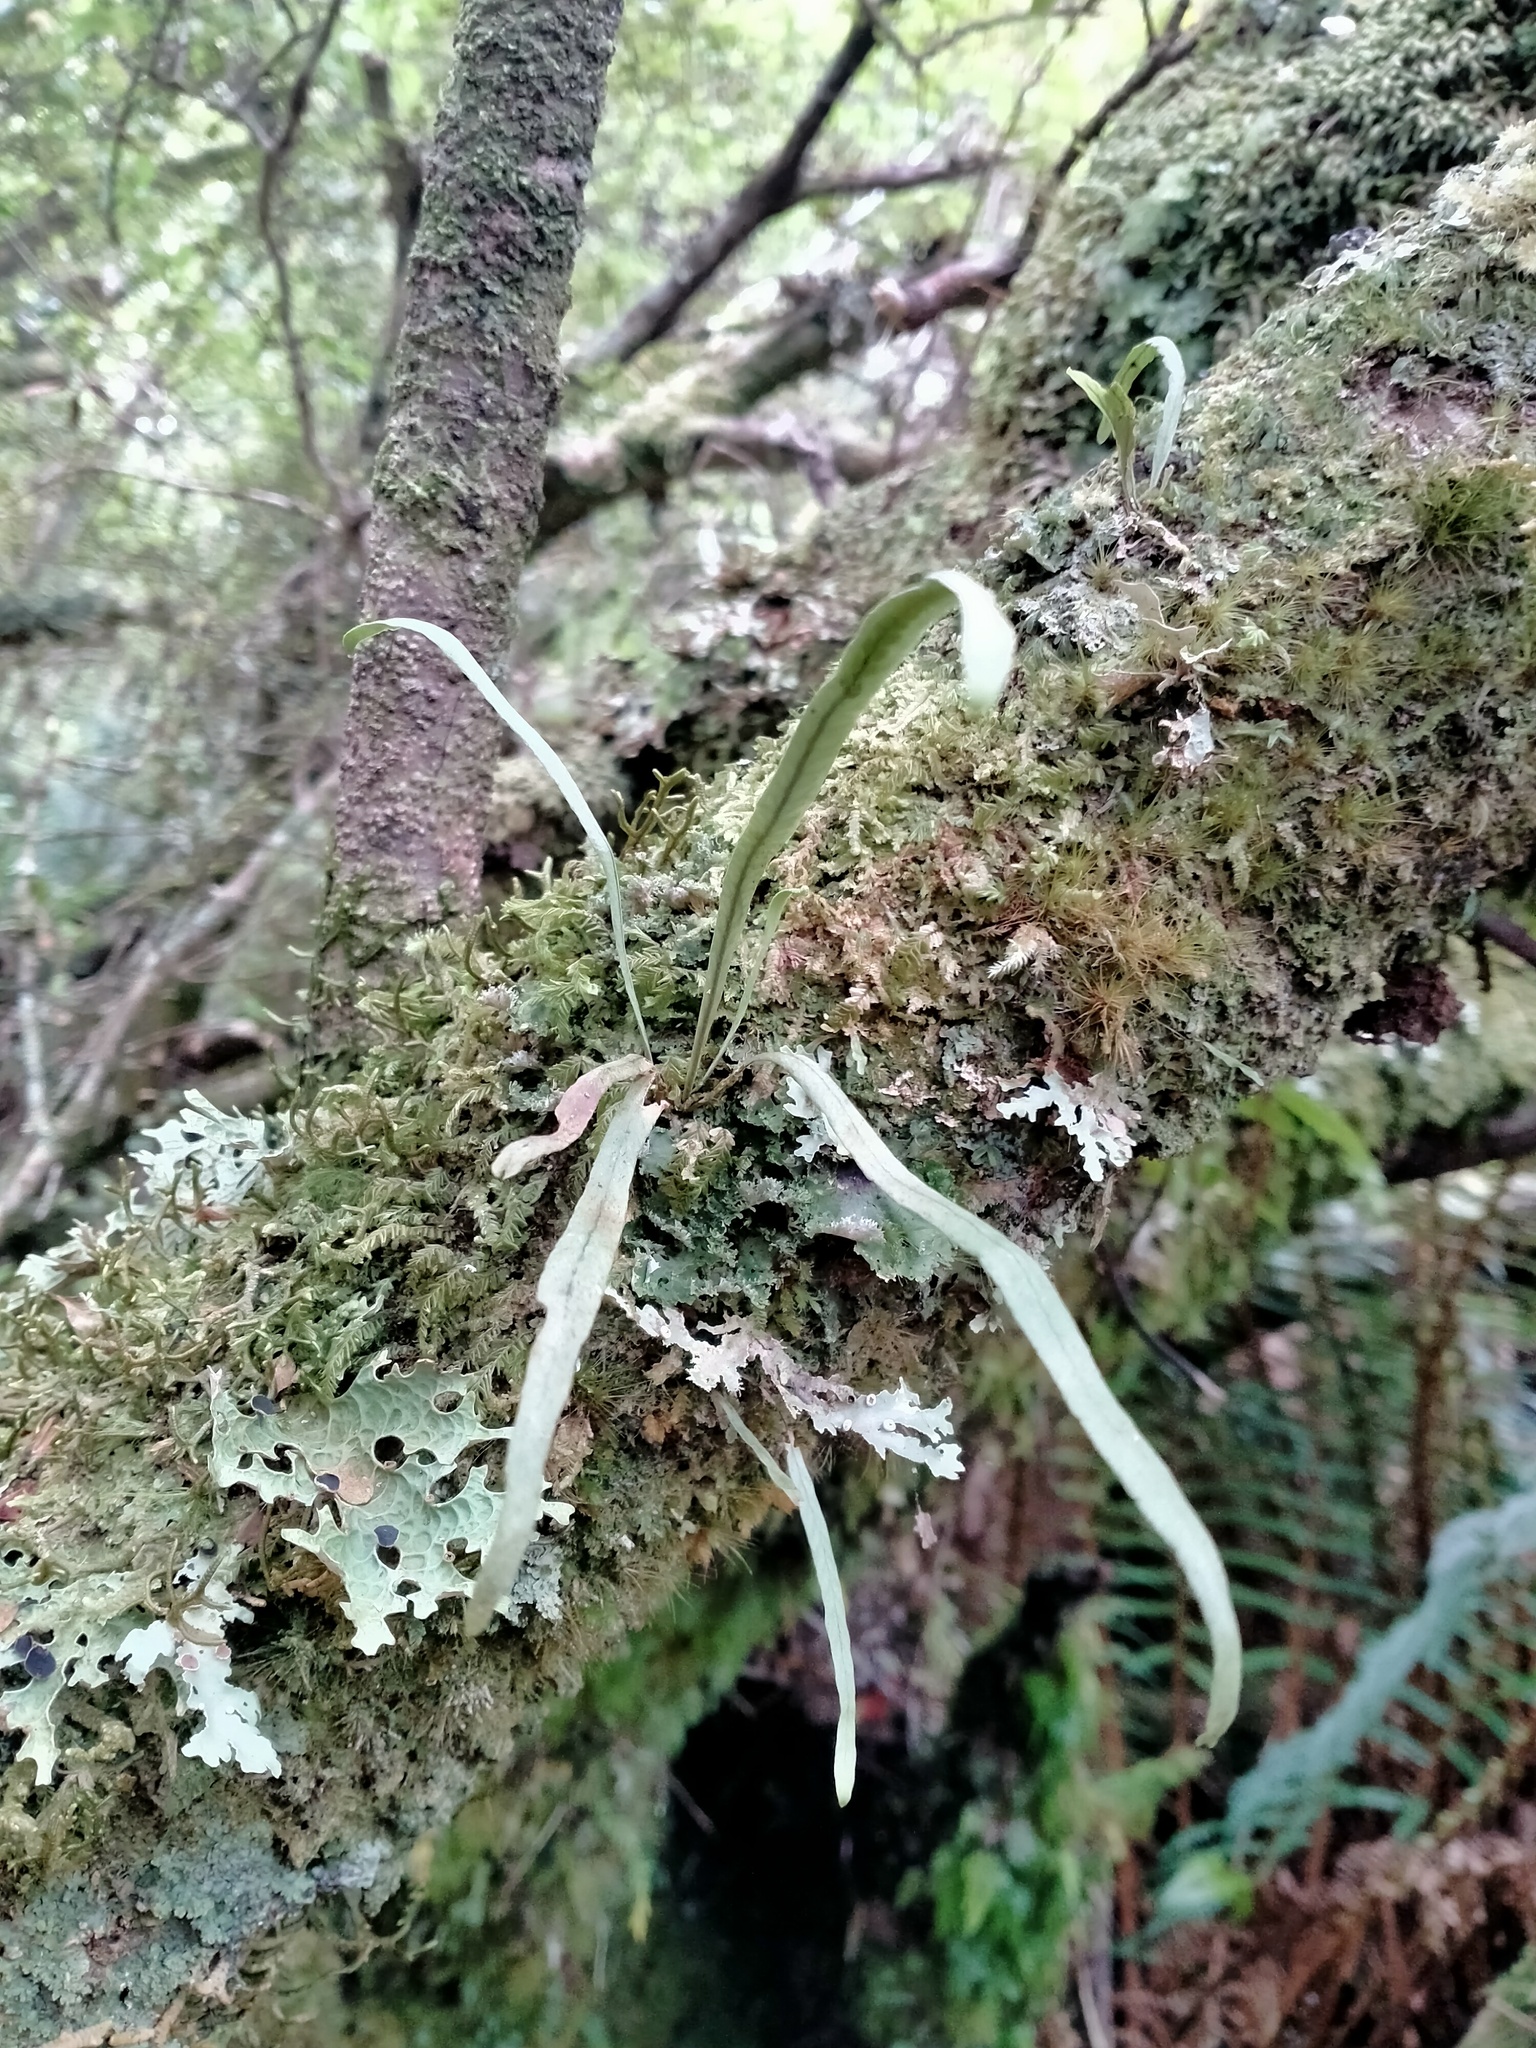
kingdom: Plantae
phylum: Tracheophyta
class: Polypodiopsida
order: Polypodiales
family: Polypodiaceae
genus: Notogrammitis
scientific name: Notogrammitis angustifolia
